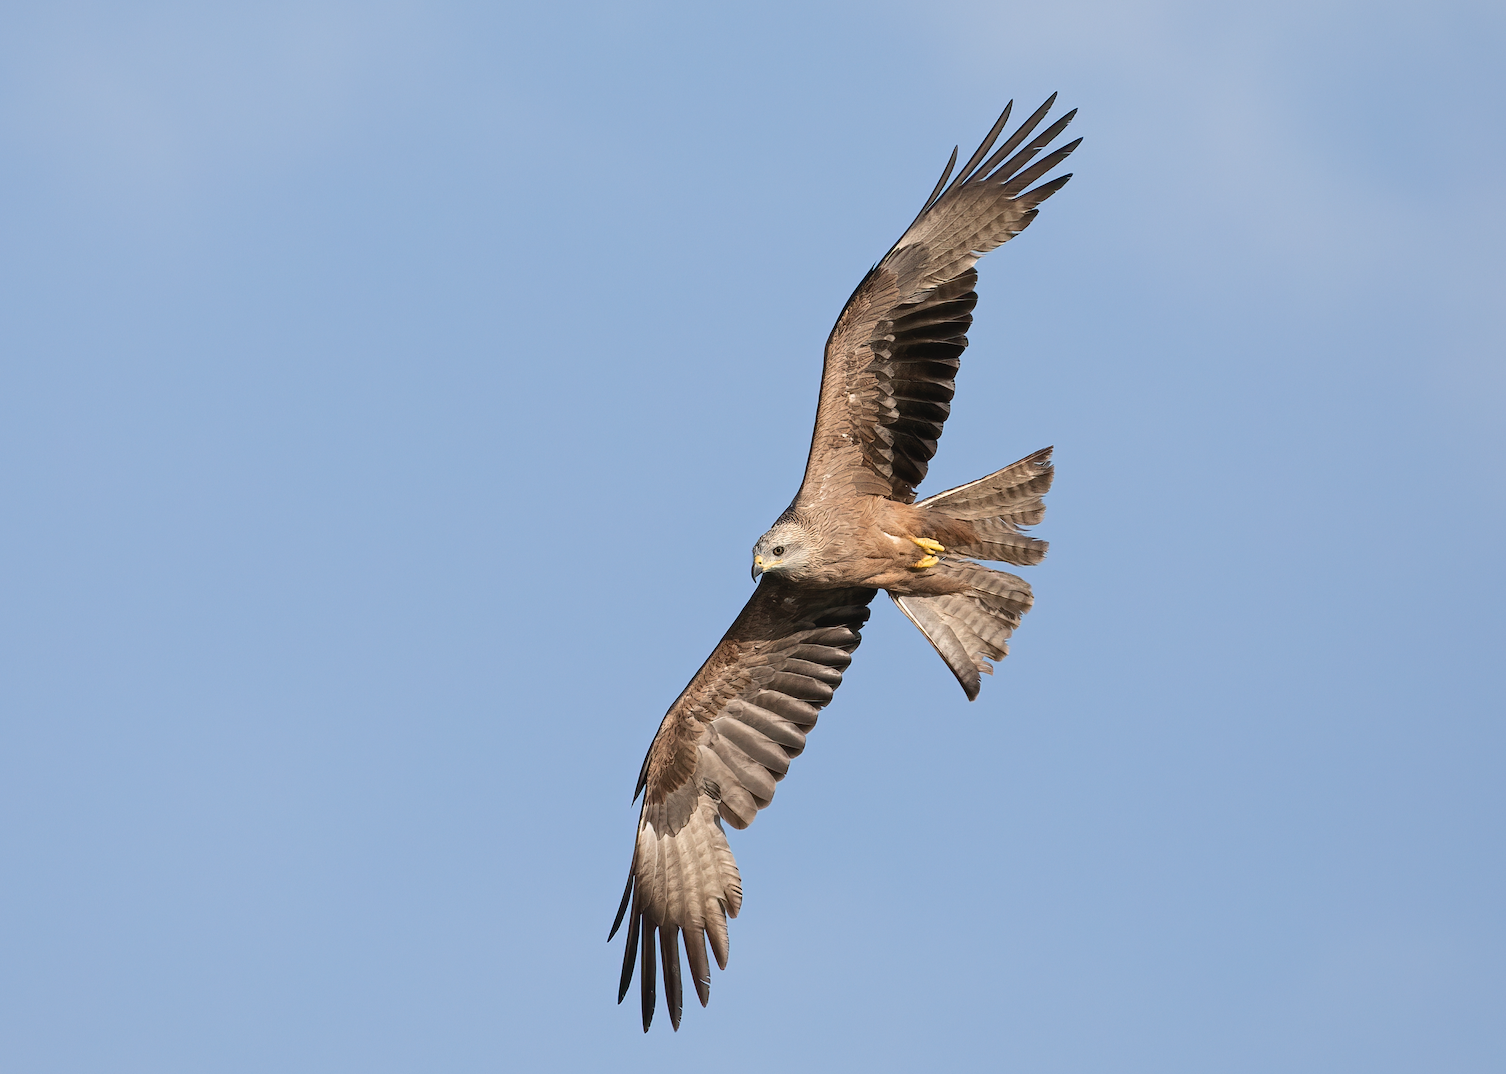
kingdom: Animalia
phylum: Chordata
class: Aves
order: Accipitriformes
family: Accipitridae
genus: Milvus
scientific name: Milvus migrans
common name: Black kite
